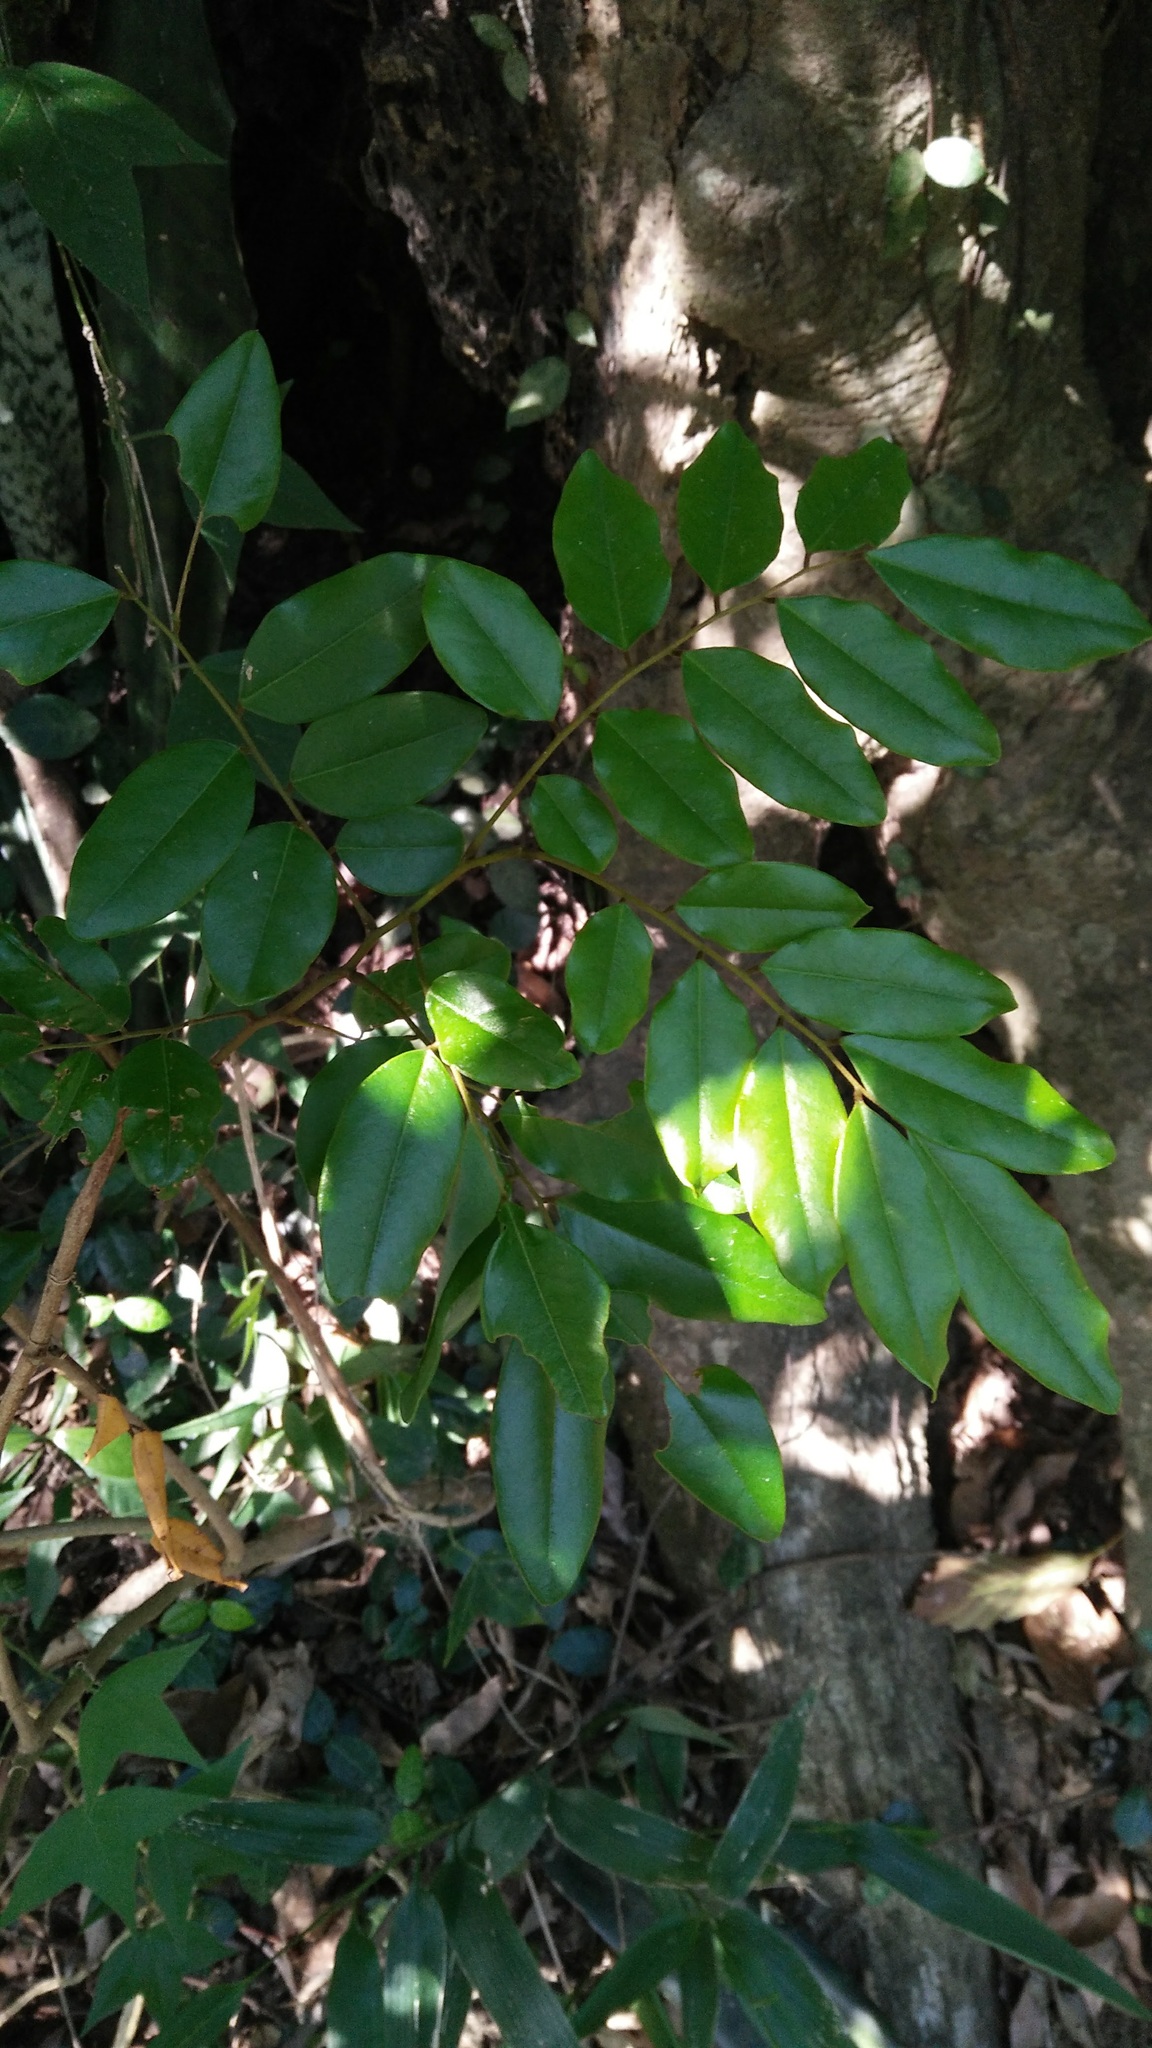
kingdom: Plantae
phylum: Tracheophyta
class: Magnoliopsida
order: Fabales
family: Fabaceae
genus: Dalbergia
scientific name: Dalbergia benthamii
